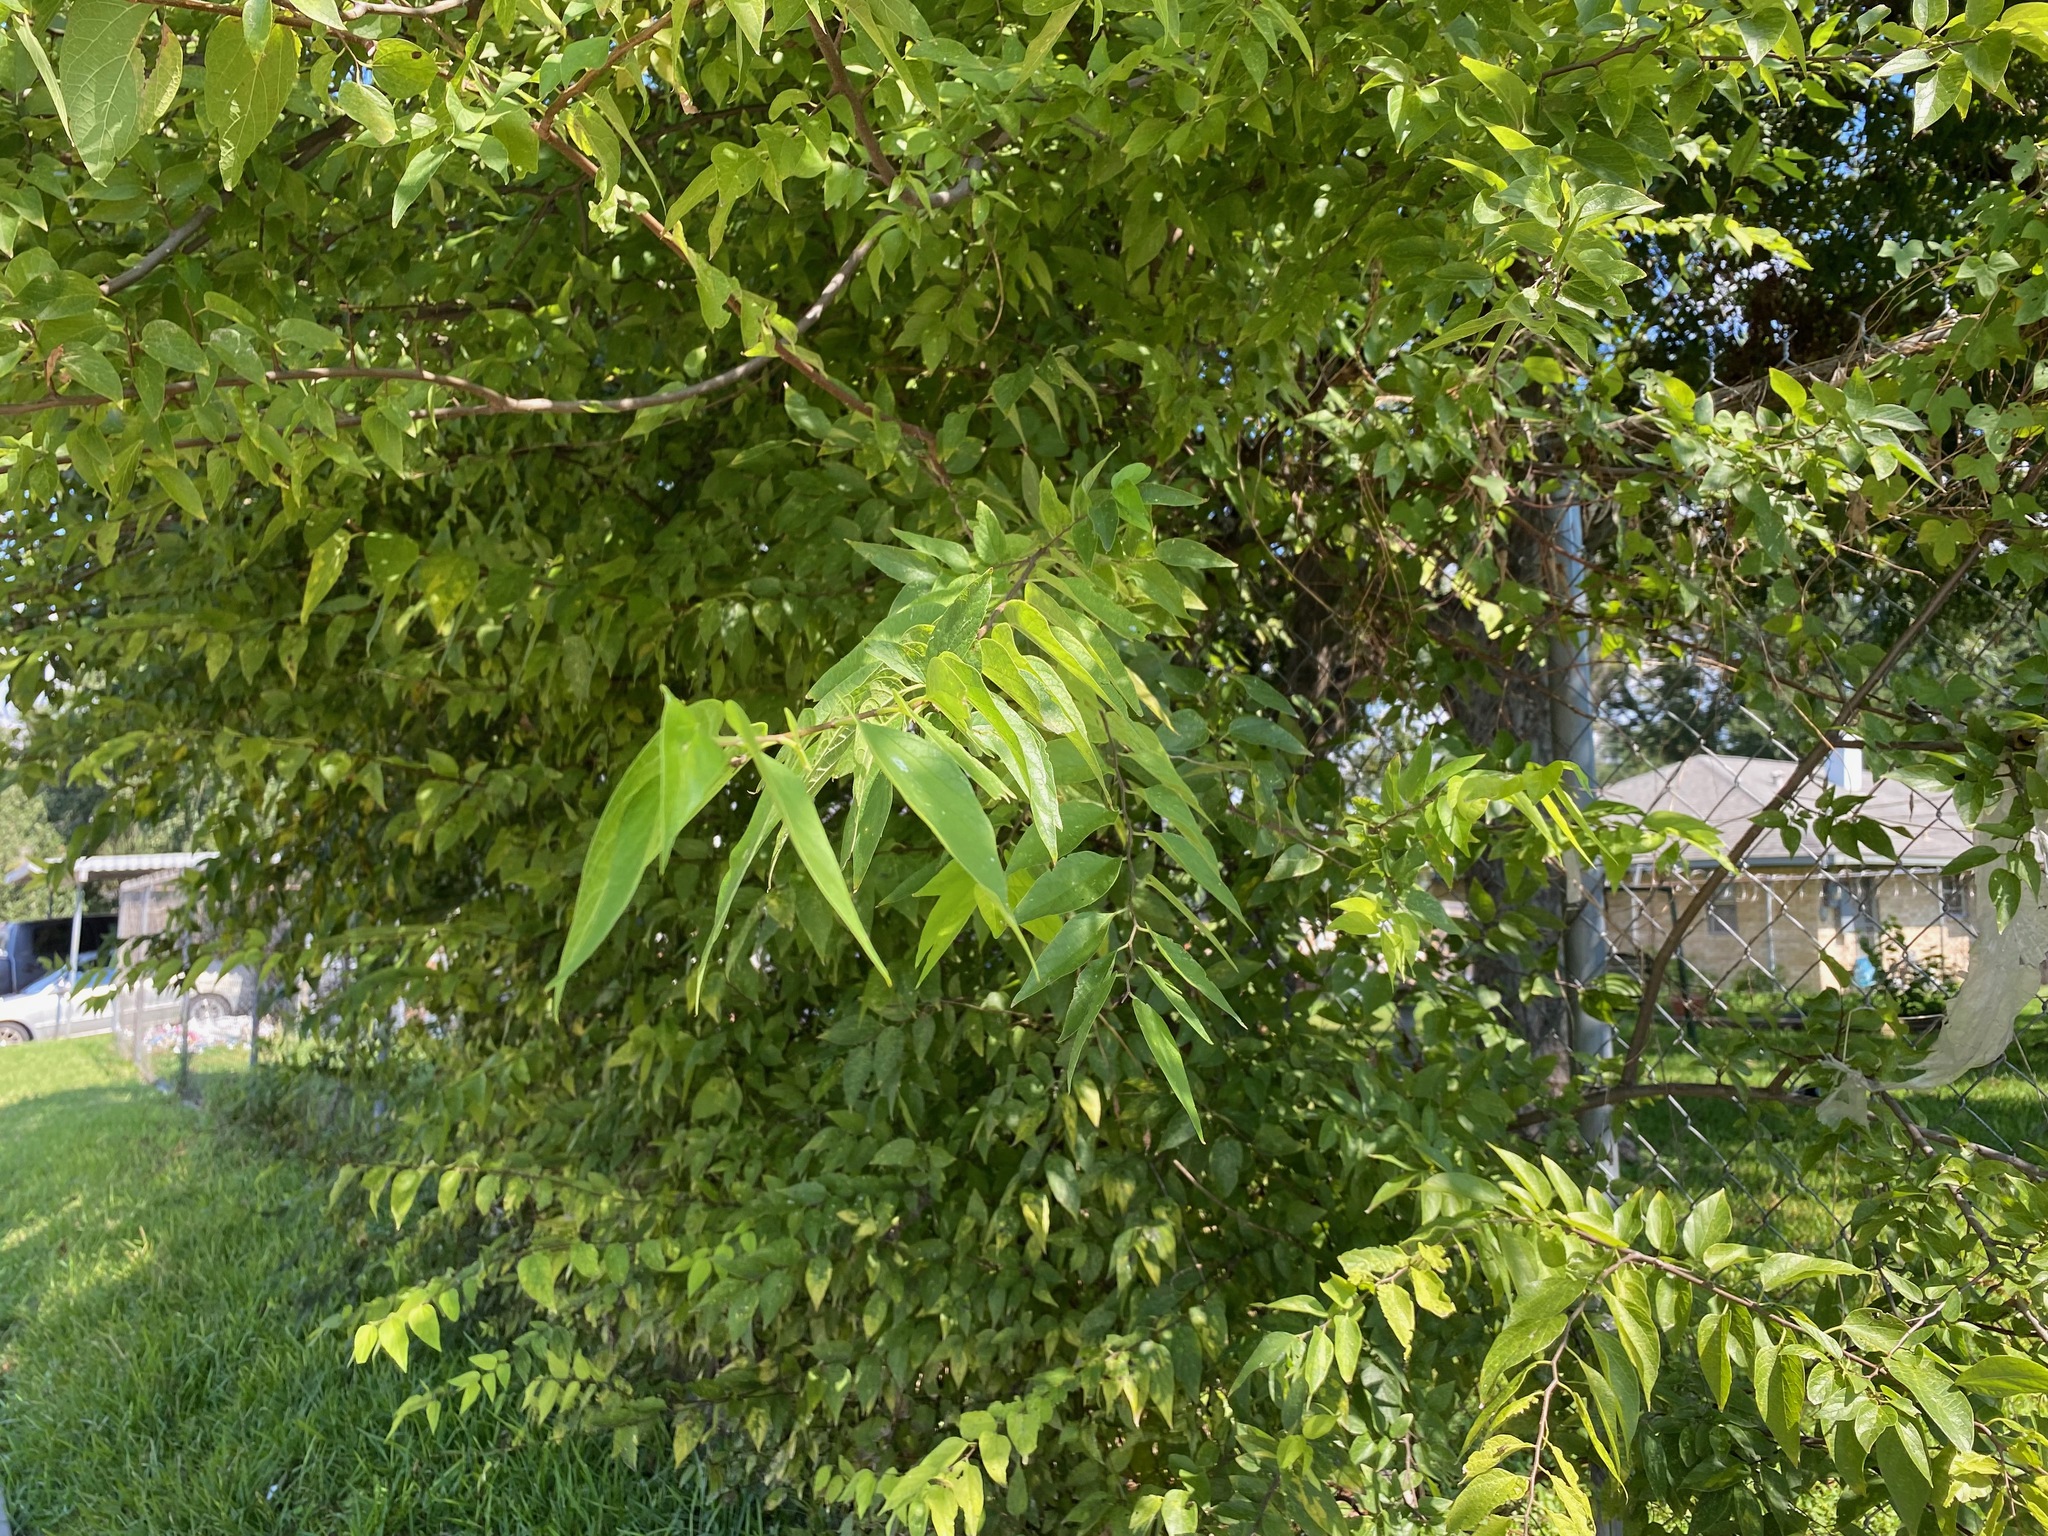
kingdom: Plantae
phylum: Tracheophyta
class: Magnoliopsida
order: Rosales
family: Cannabaceae
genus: Celtis
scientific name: Celtis laevigata
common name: Sugarberry
